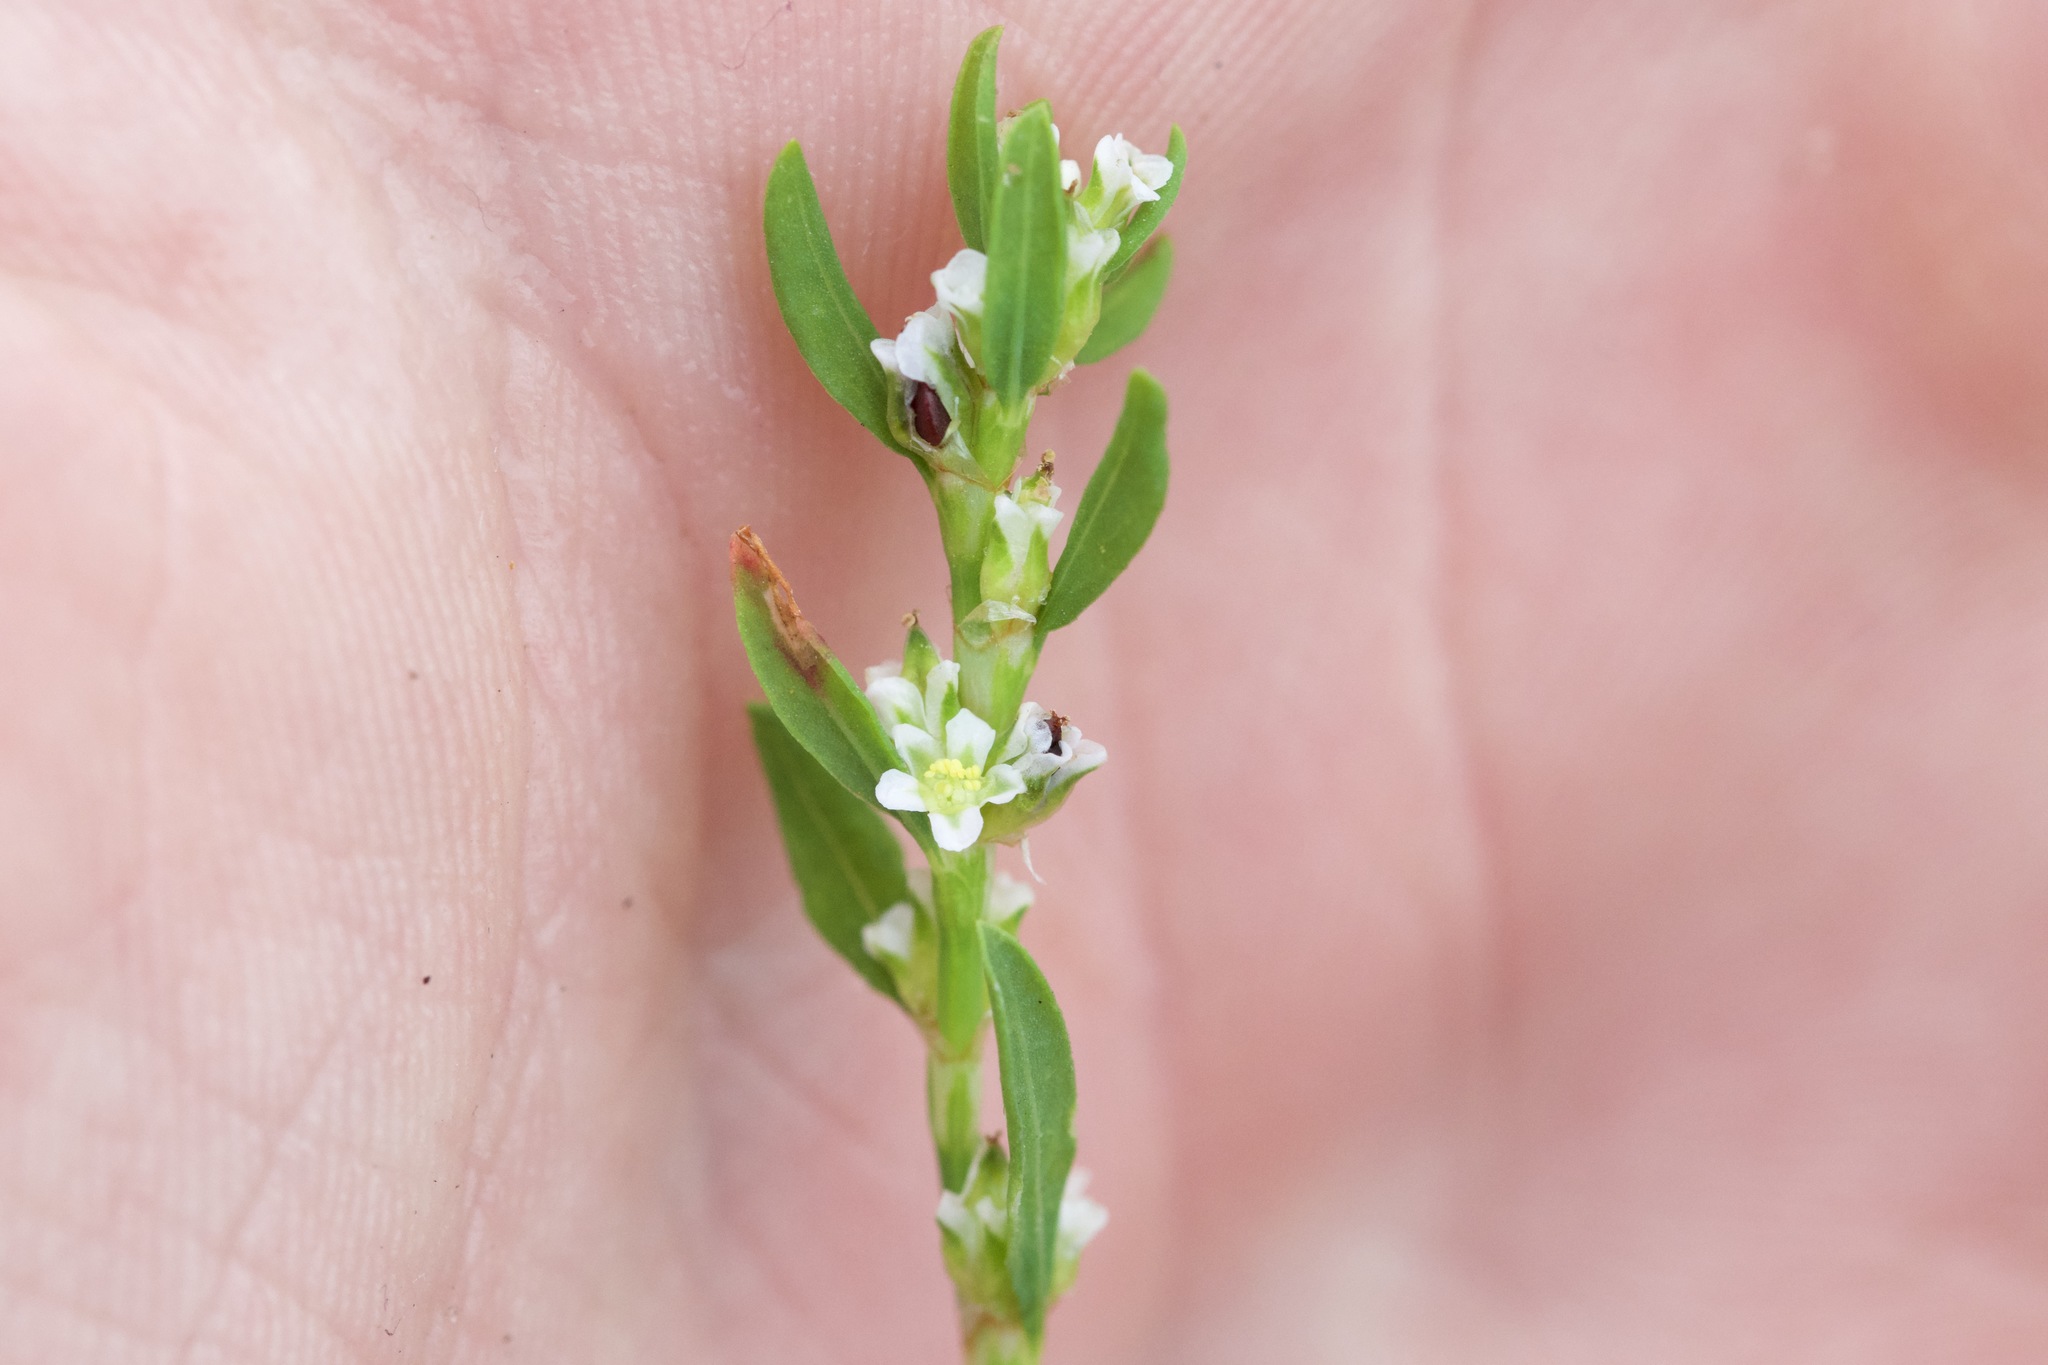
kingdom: Plantae
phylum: Tracheophyta
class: Magnoliopsida
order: Caryophyllales
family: Polygonaceae
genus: Polygonum
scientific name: Polygonum aviculare
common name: Prostrate knotweed
